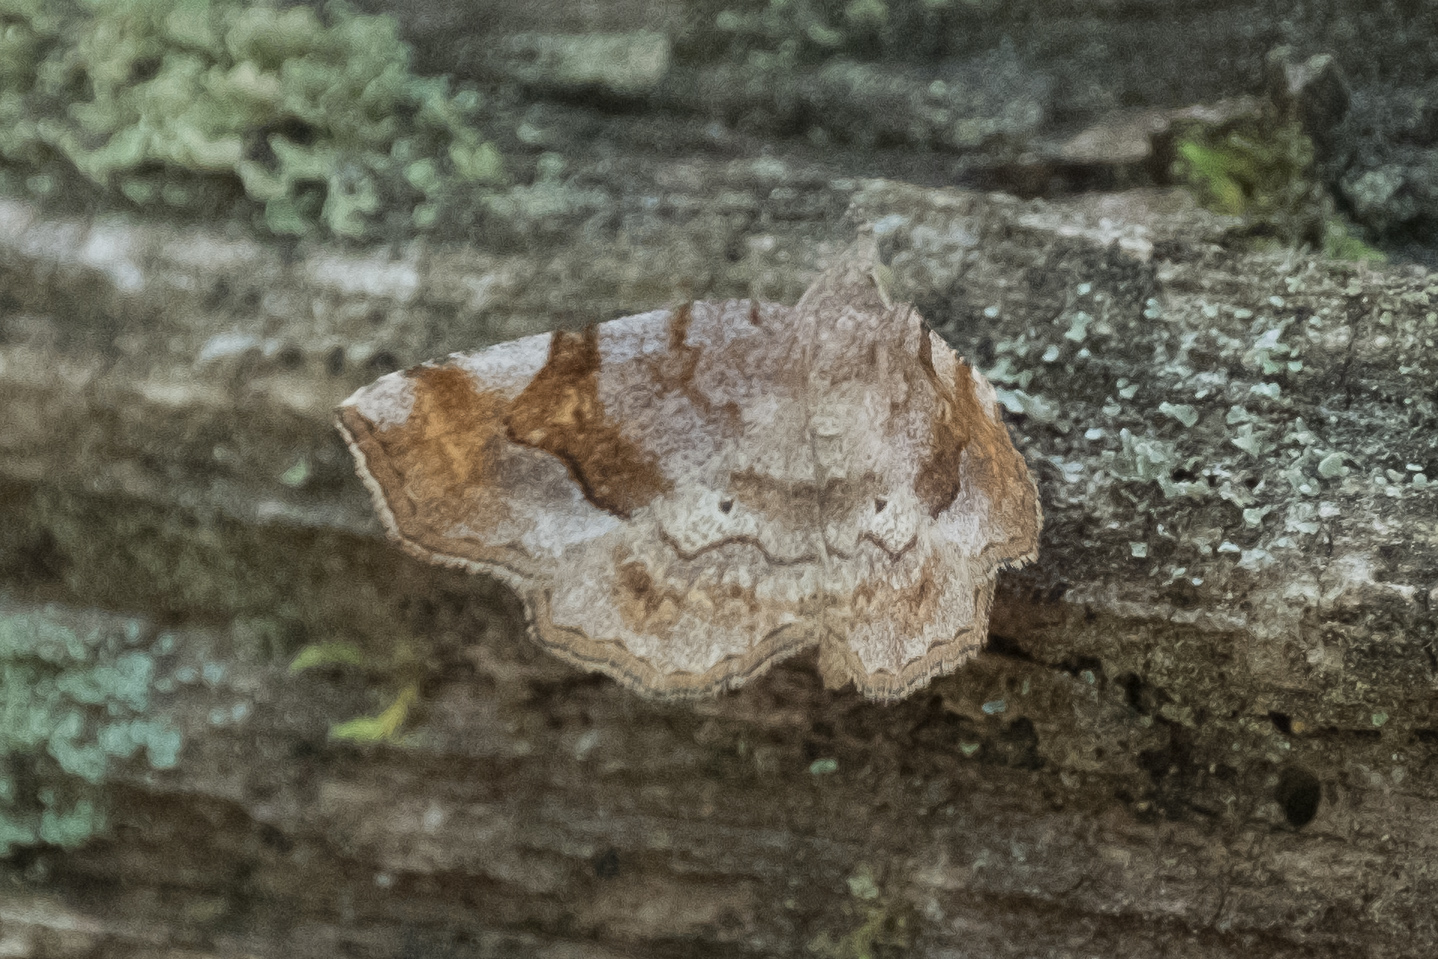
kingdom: Animalia
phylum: Arthropoda
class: Insecta
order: Lepidoptera
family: Erebidae
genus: Pangrapta
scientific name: Pangrapta decoralis
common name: Decorated owlet
